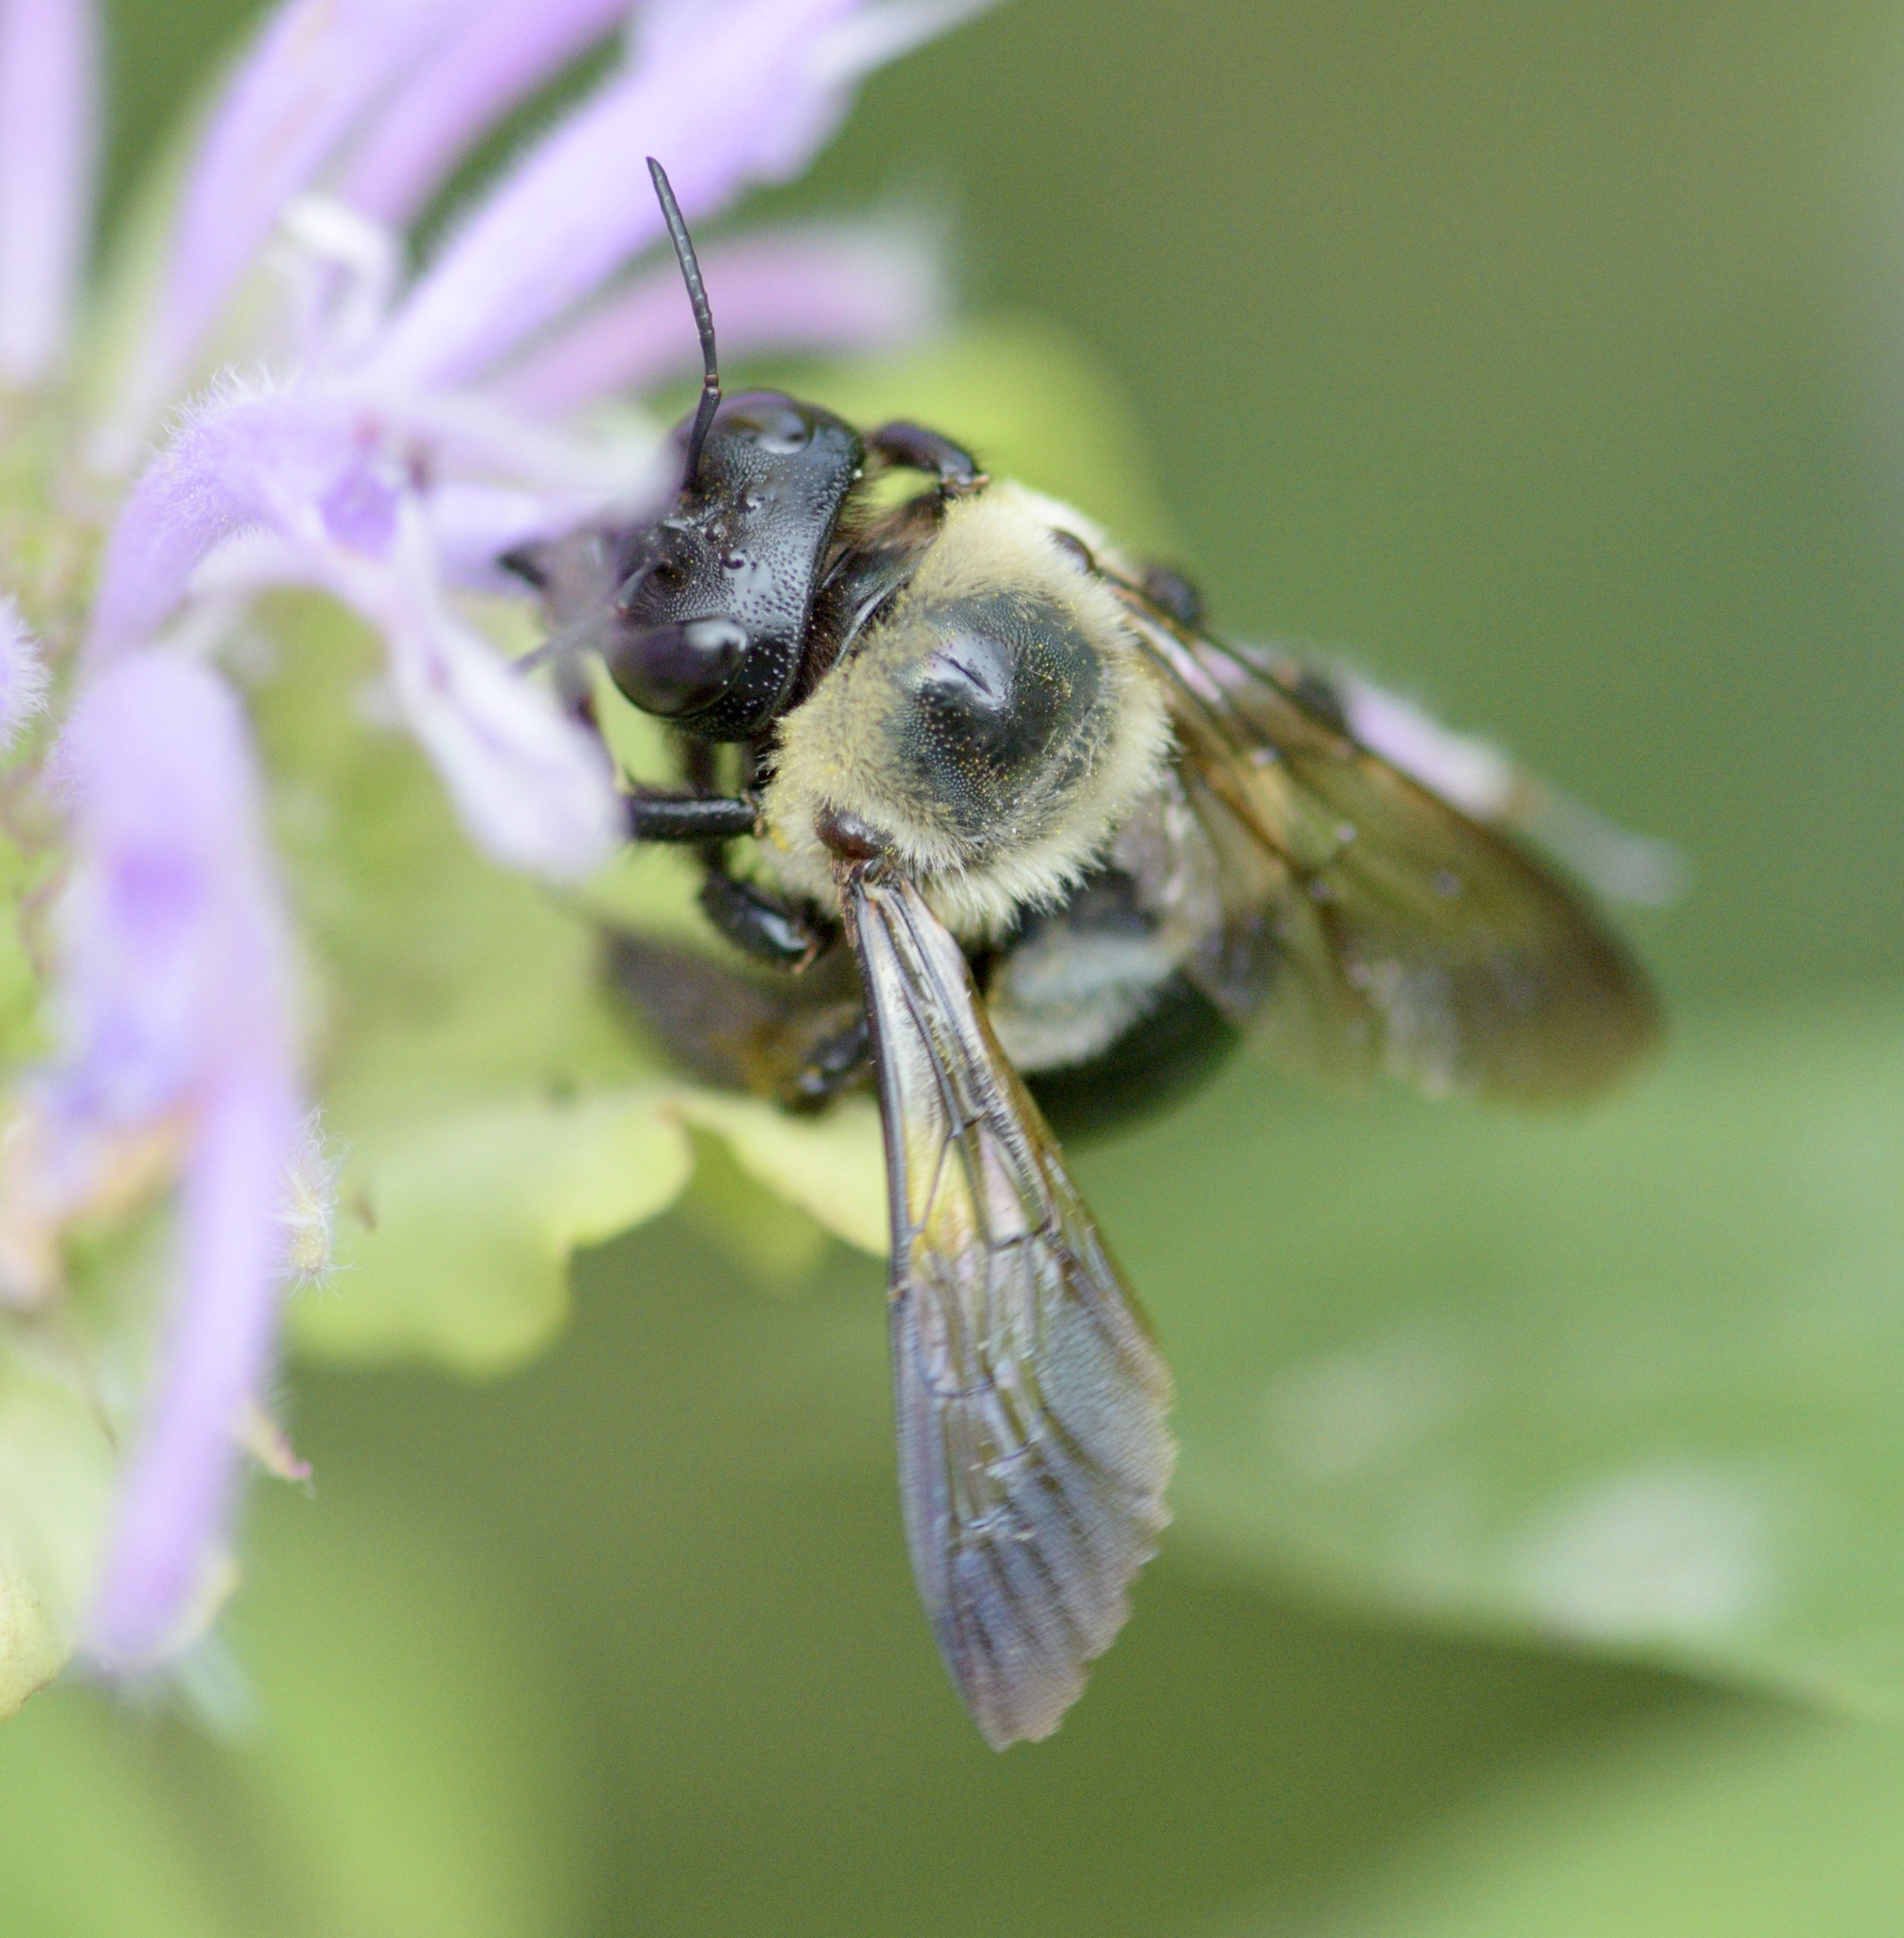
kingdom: Animalia
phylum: Arthropoda
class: Insecta
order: Hymenoptera
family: Apidae
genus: Xylocopa
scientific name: Xylocopa virginica
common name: Carpenter bee
